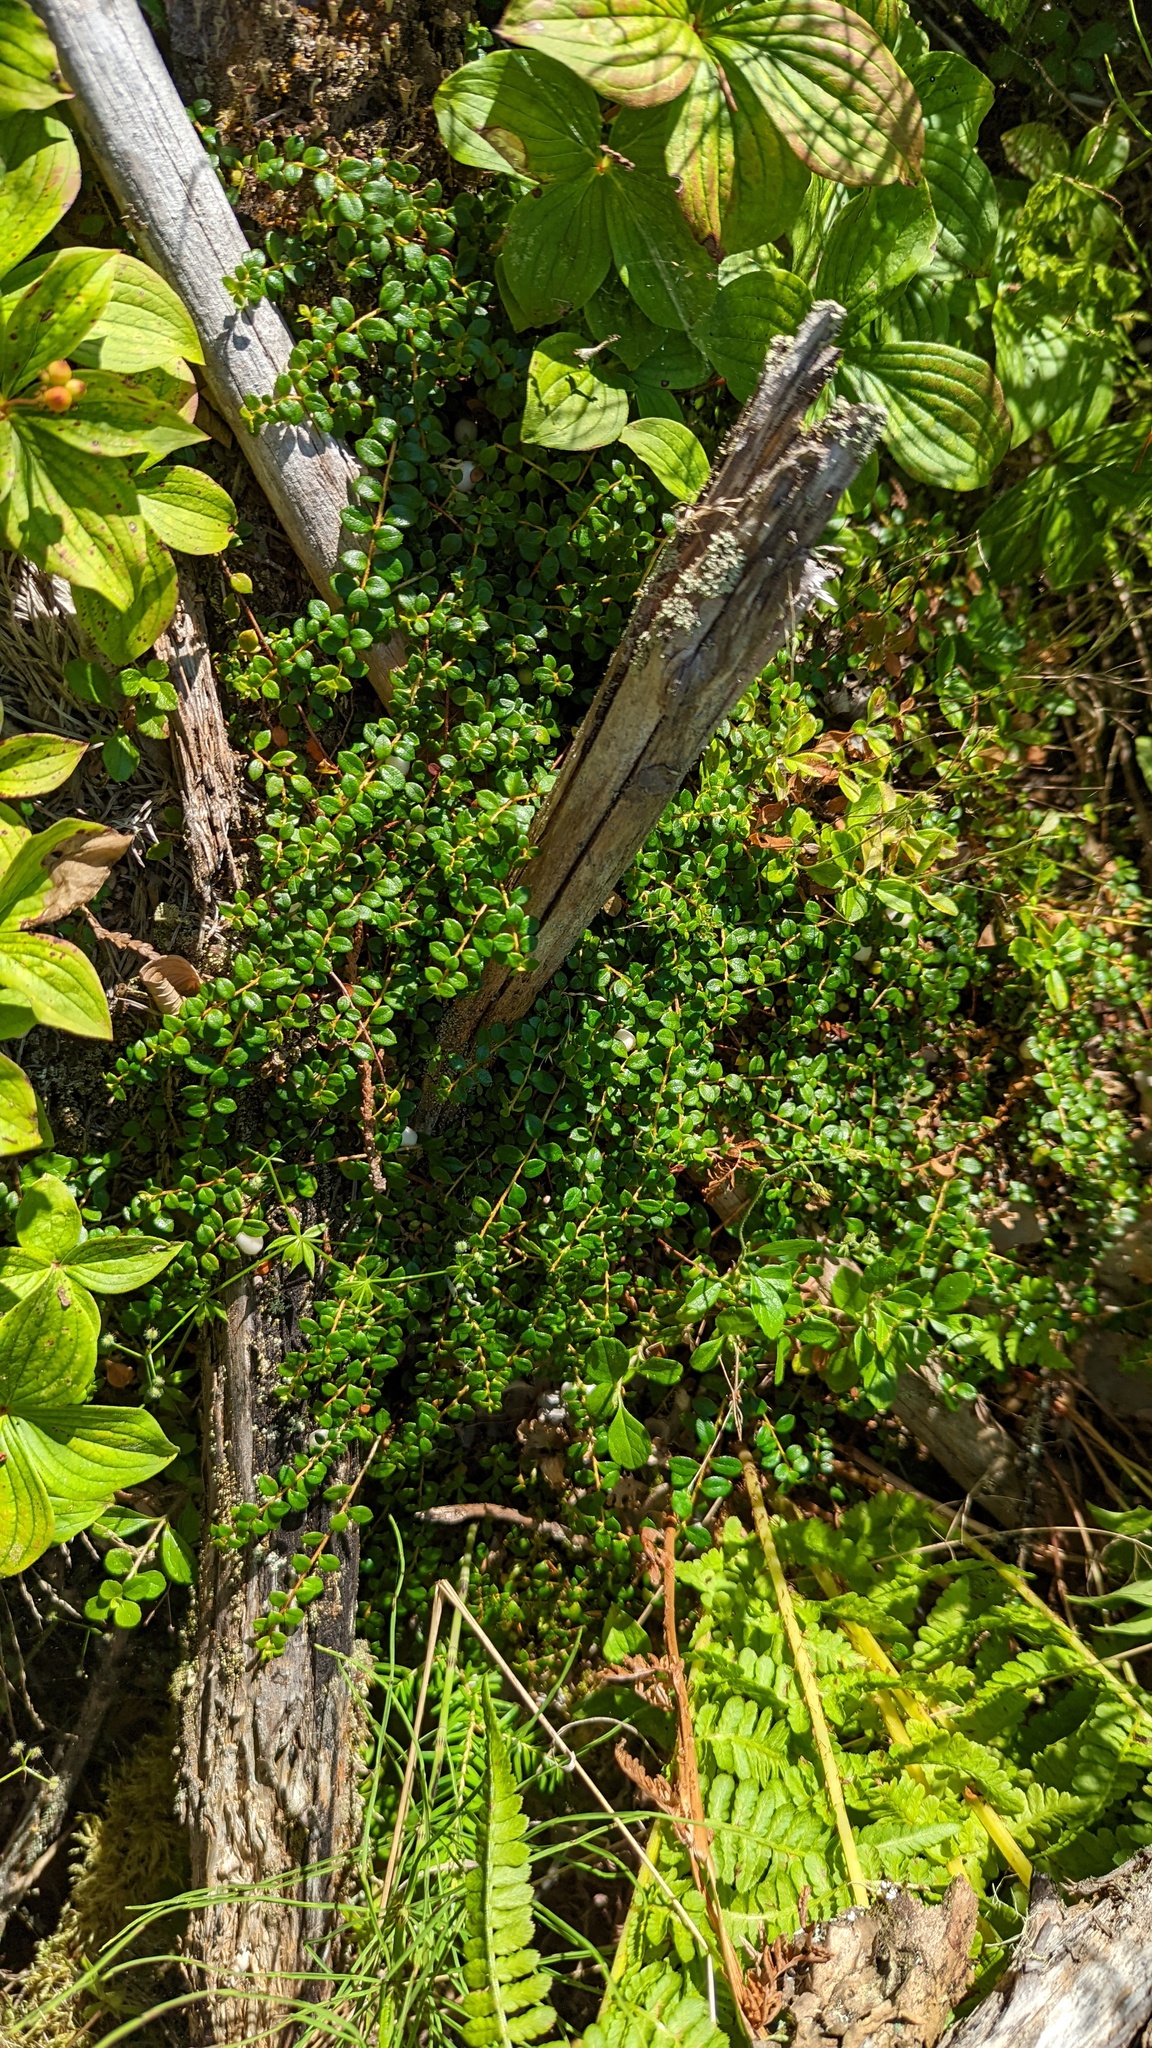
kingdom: Plantae
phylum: Tracheophyta
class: Magnoliopsida
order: Ericales
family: Ericaceae
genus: Gaultheria
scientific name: Gaultheria hispidula
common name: Cancer wintergreen
